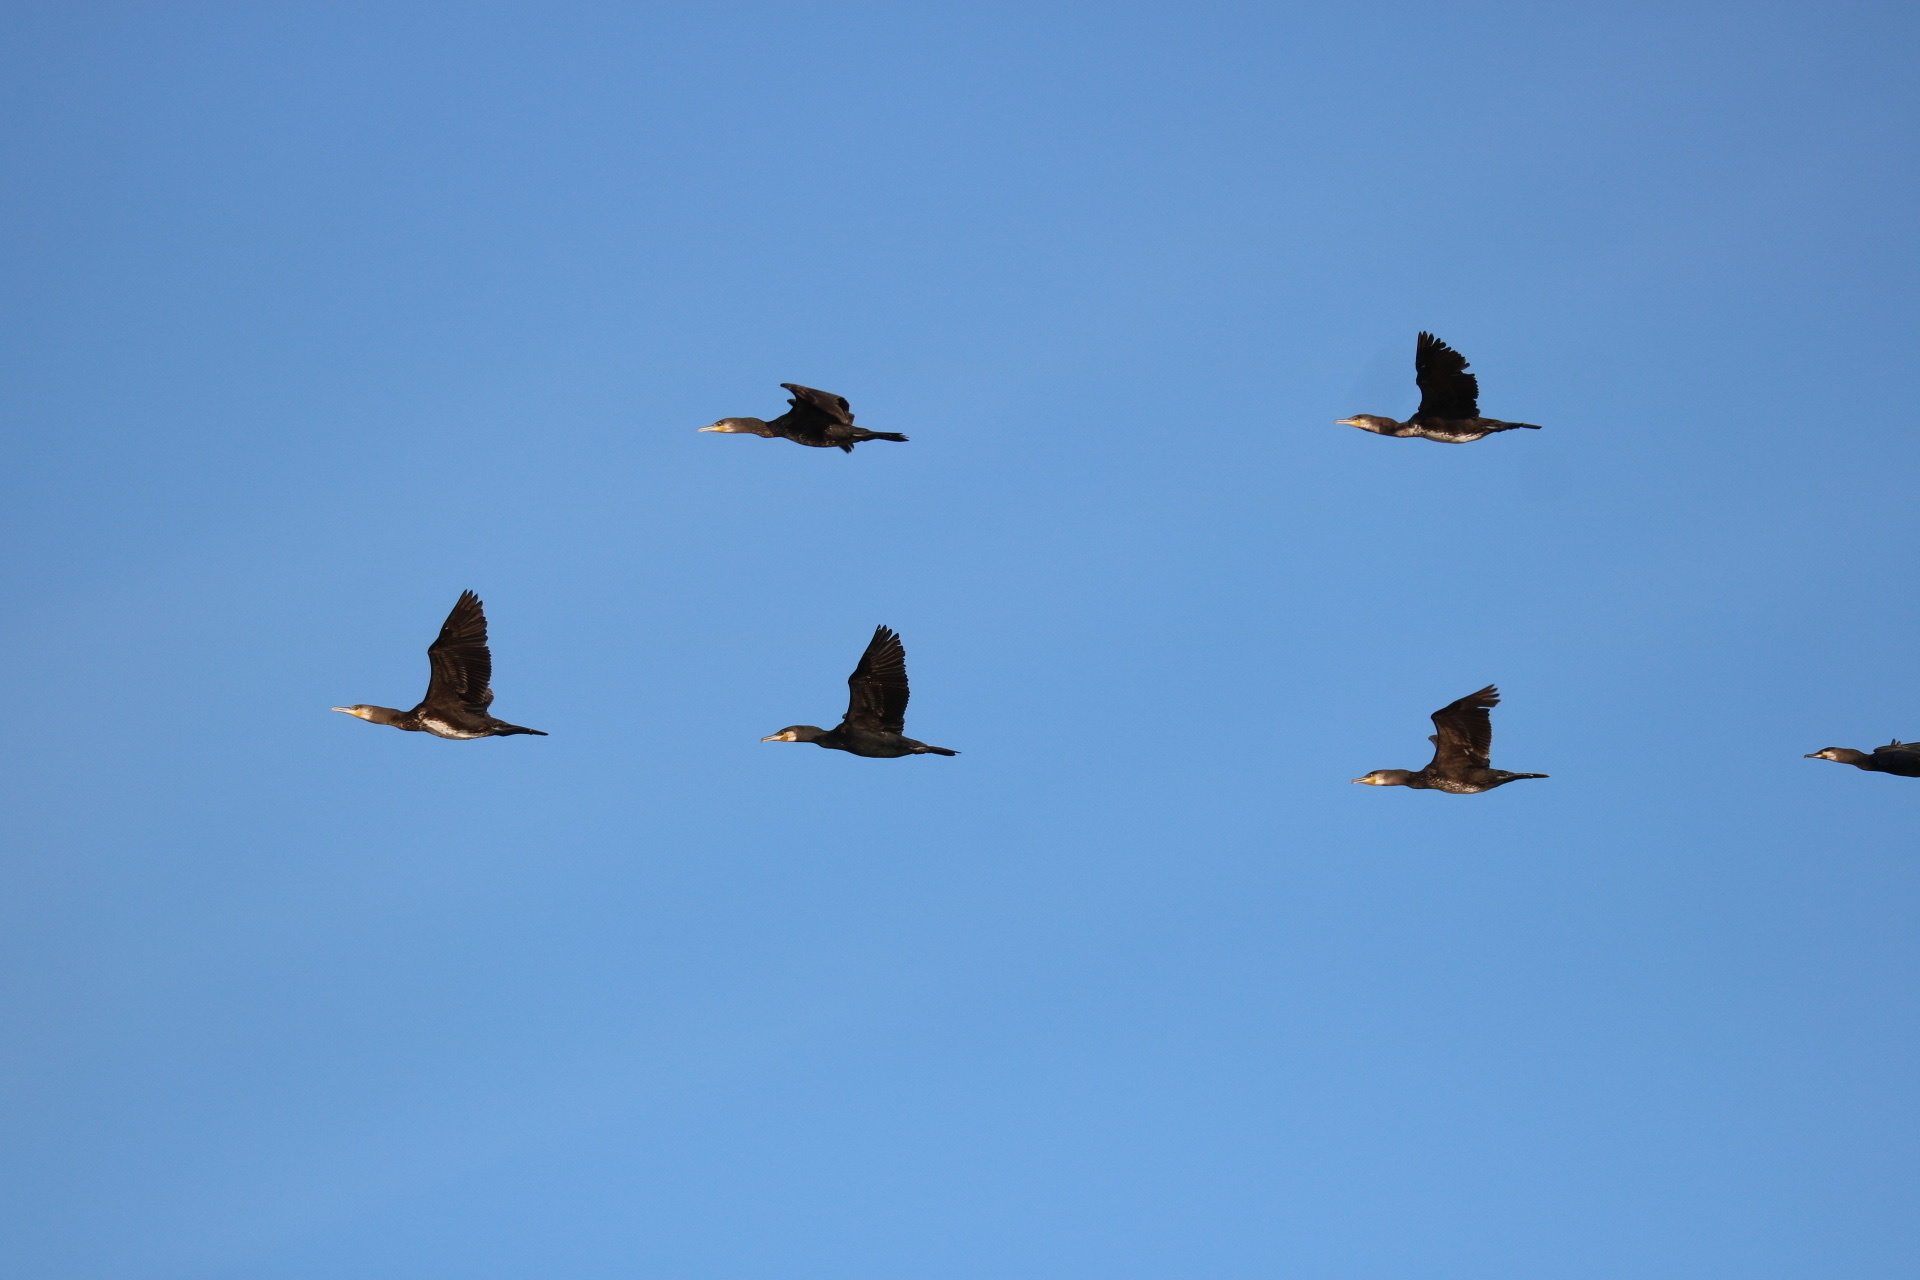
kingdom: Animalia
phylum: Chordata
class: Aves
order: Suliformes
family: Phalacrocoracidae
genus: Phalacrocorax
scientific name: Phalacrocorax carbo
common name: Great cormorant
